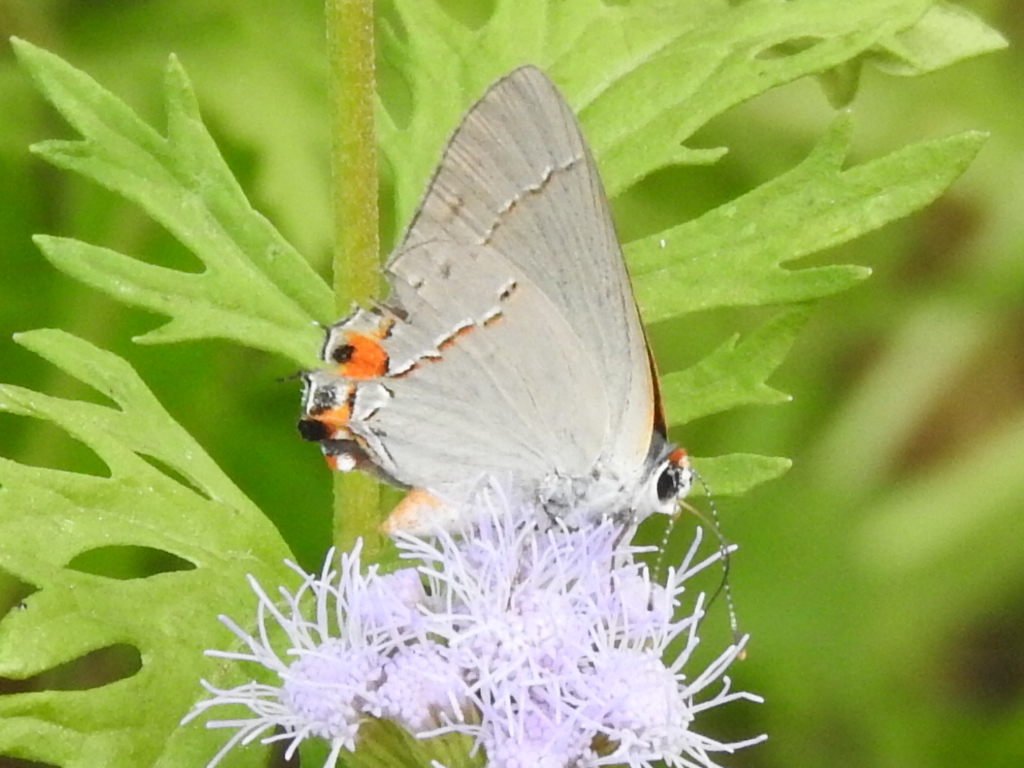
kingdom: Animalia
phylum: Arthropoda
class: Insecta
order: Lepidoptera
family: Lycaenidae
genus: Strymon
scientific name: Strymon melinus
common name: Gray hairstreak
